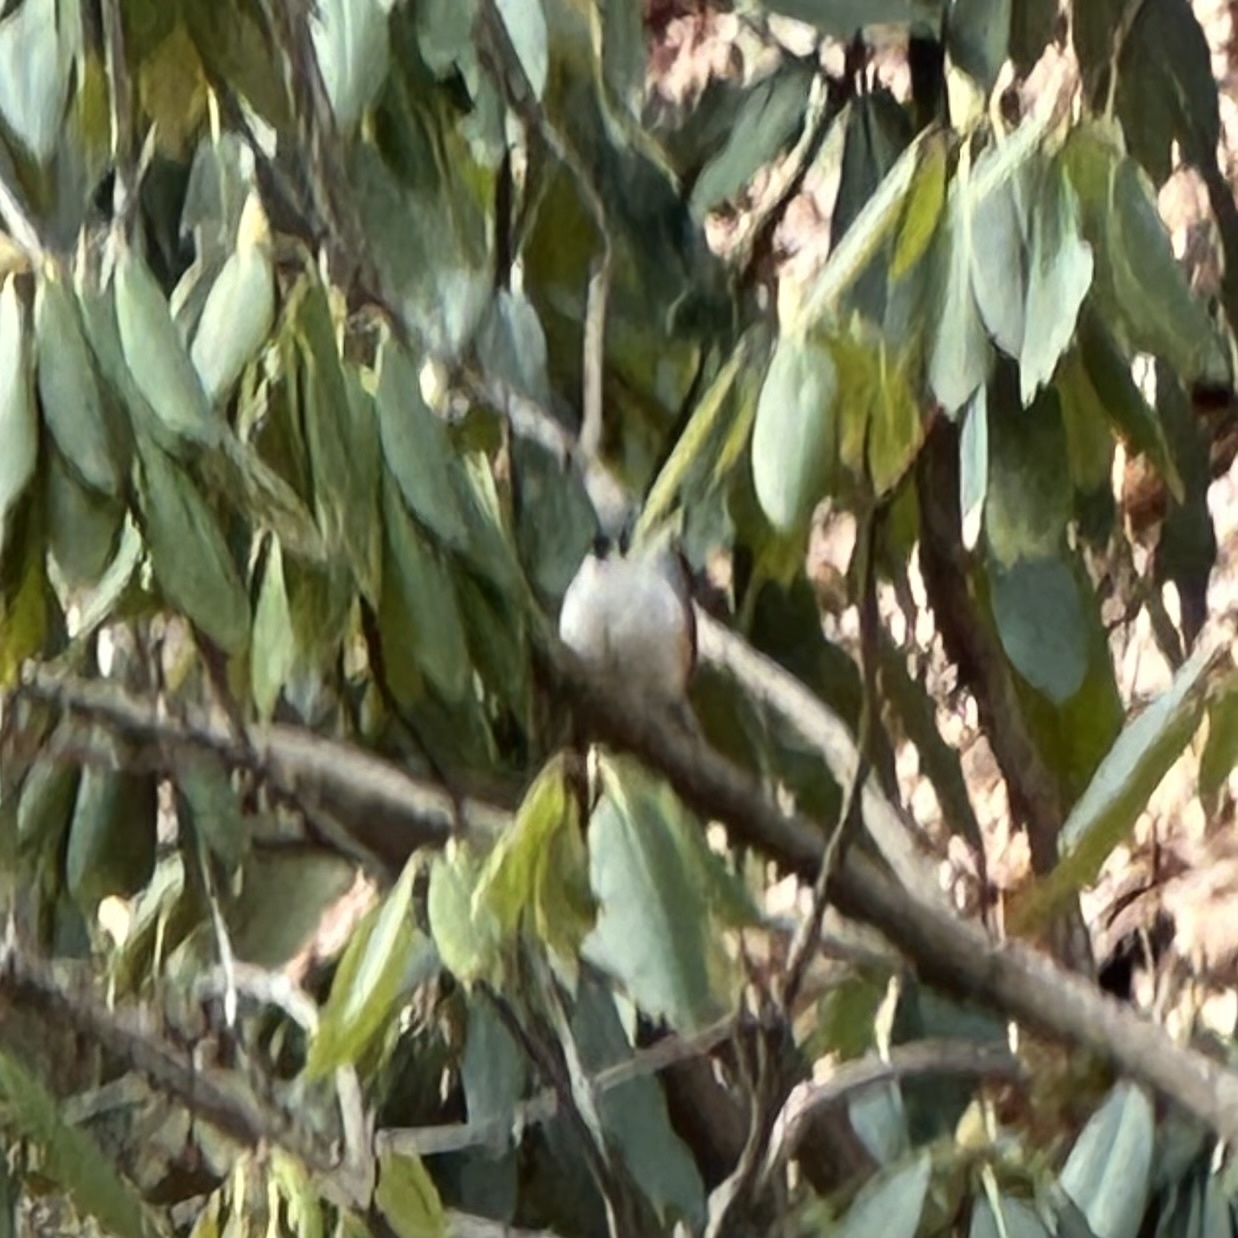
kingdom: Animalia
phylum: Chordata
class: Aves
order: Passeriformes
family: Paridae
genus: Baeolophus
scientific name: Baeolophus bicolor
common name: Tufted titmouse
